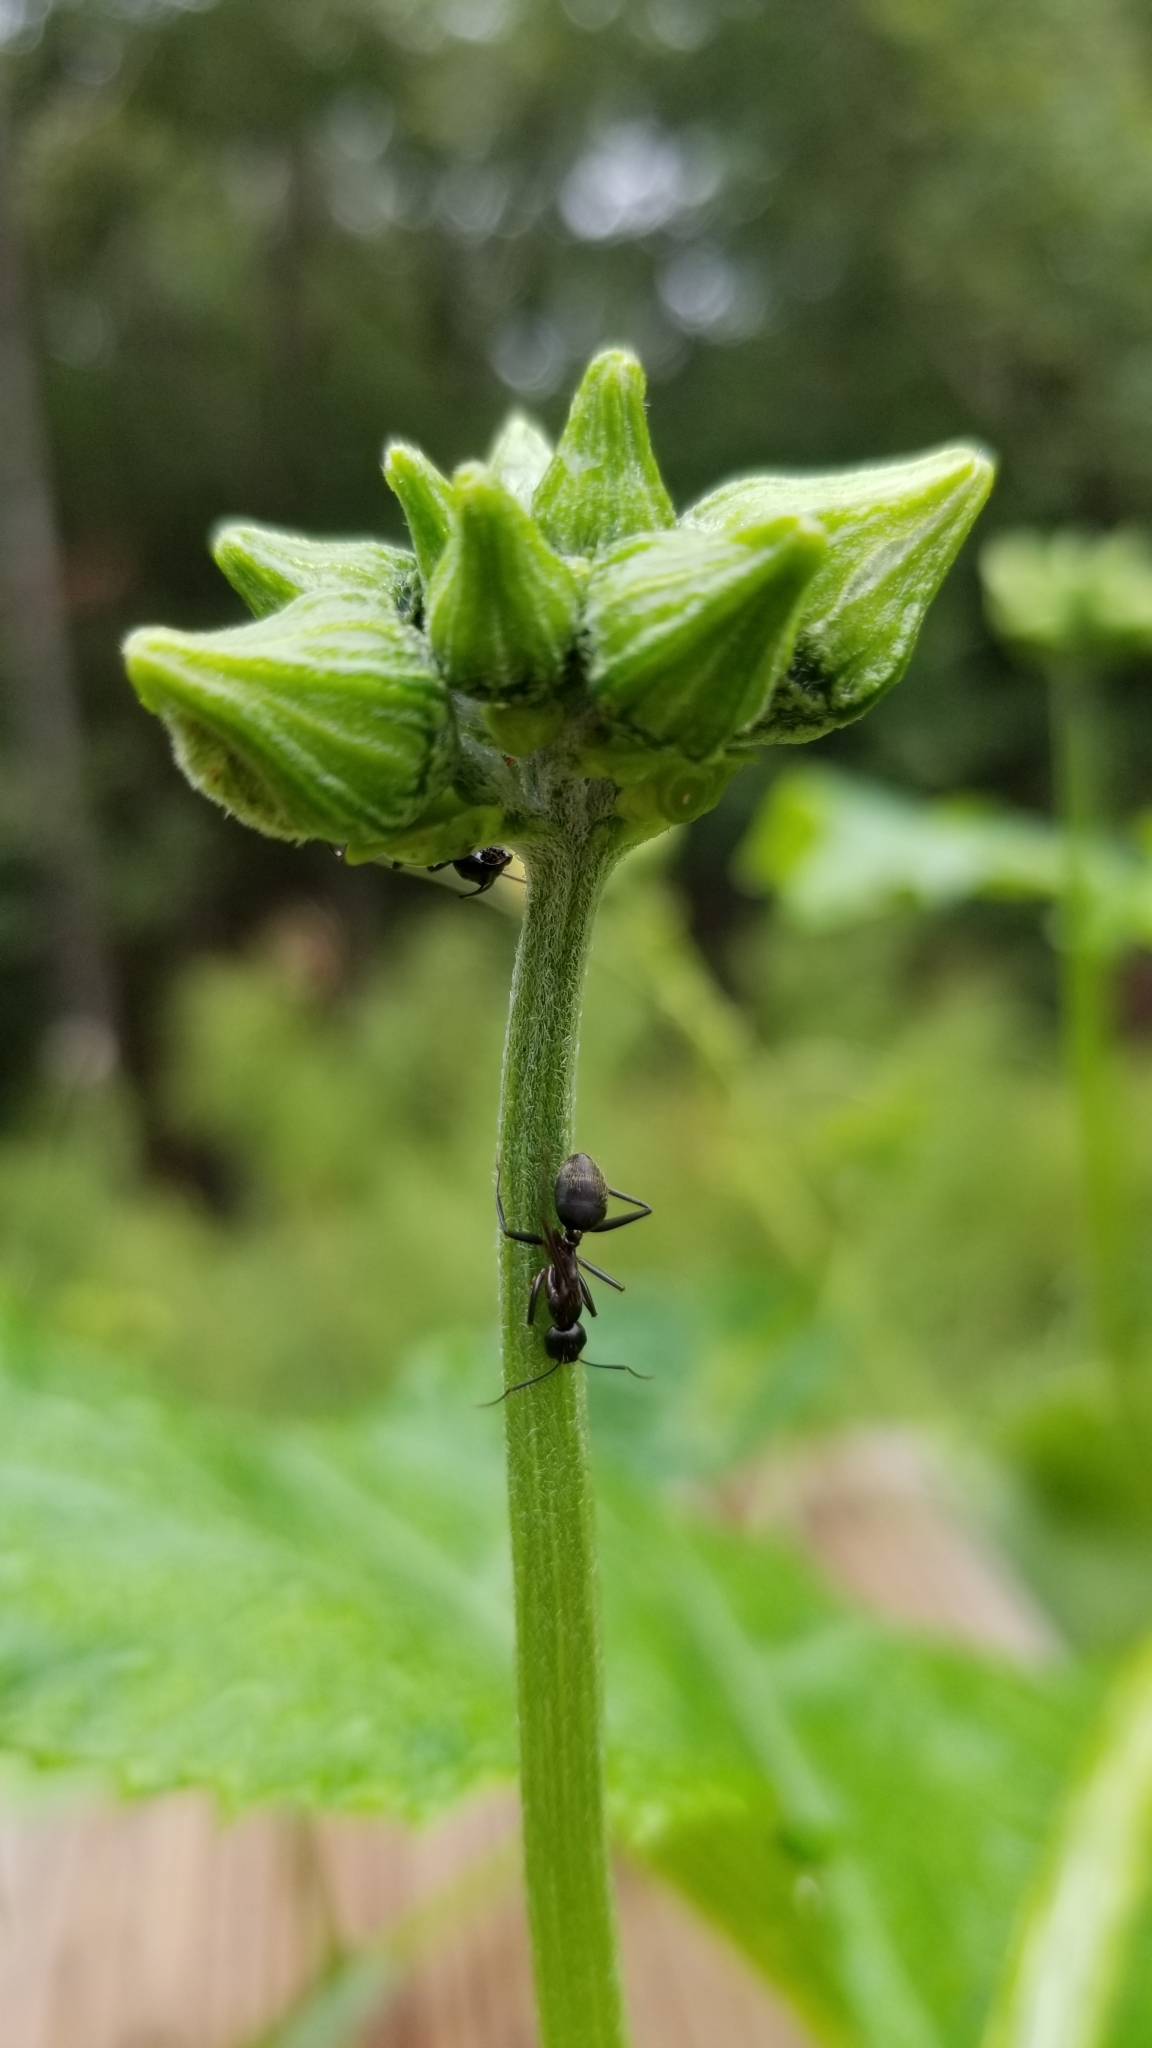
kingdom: Animalia
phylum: Arthropoda
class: Insecta
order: Hymenoptera
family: Formicidae
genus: Formica
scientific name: Formica subsericea
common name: Silky field ant
